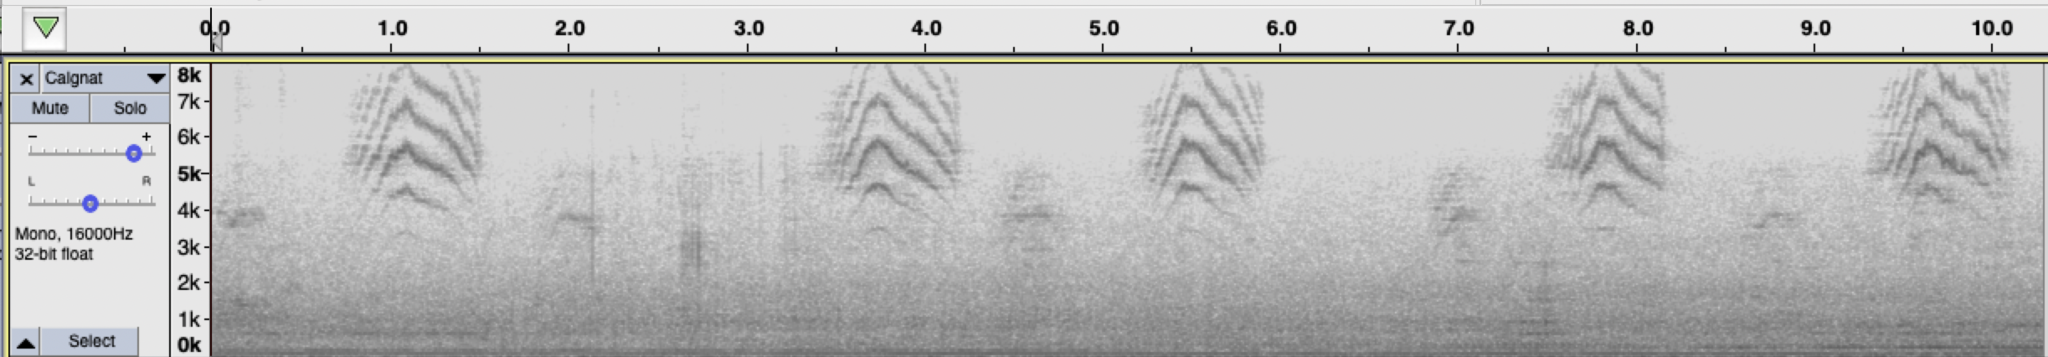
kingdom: Animalia
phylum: Chordata
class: Aves
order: Passeriformes
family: Polioptilidae
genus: Polioptila
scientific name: Polioptila californica
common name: California gnatcatcher
